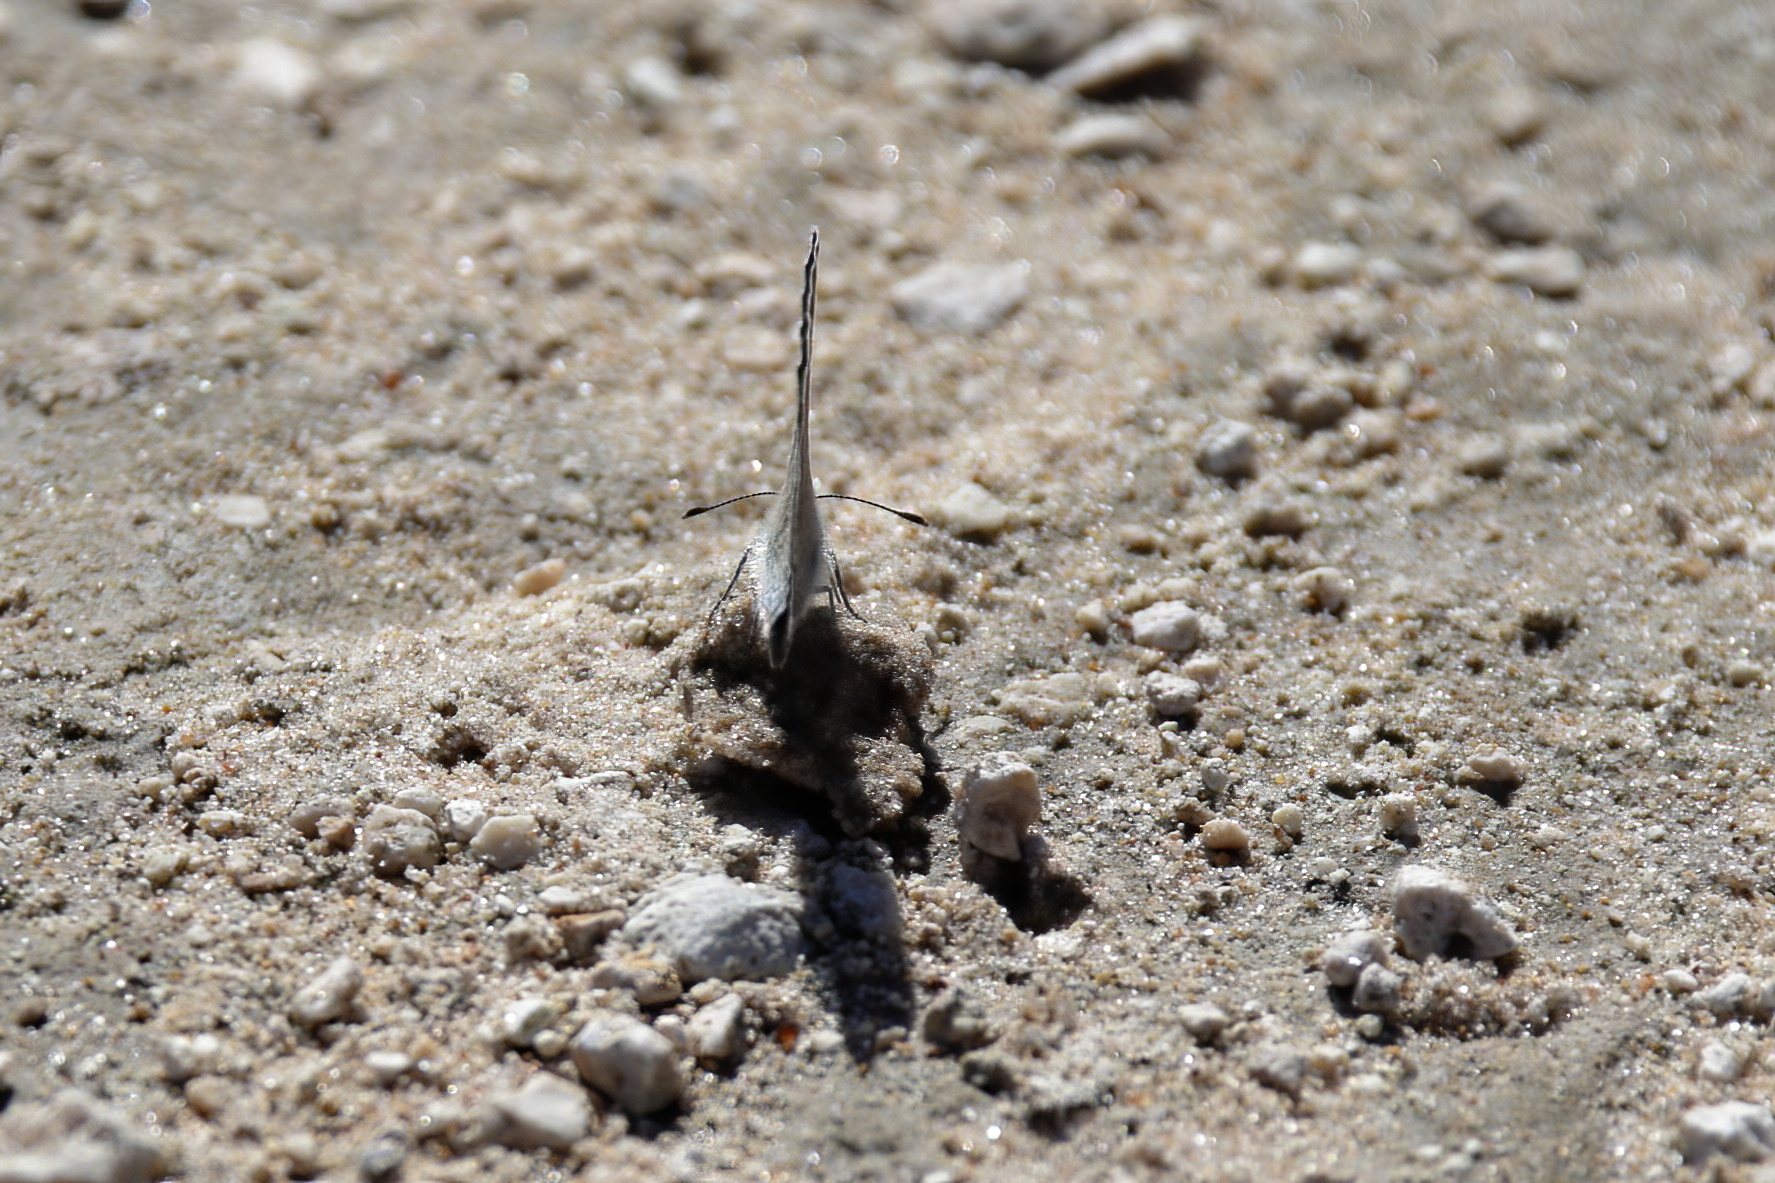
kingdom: Animalia
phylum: Arthropoda
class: Insecta
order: Lepidoptera
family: Lycaenidae
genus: Echinargus
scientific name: Echinargus isola
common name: Reakirt's blue
